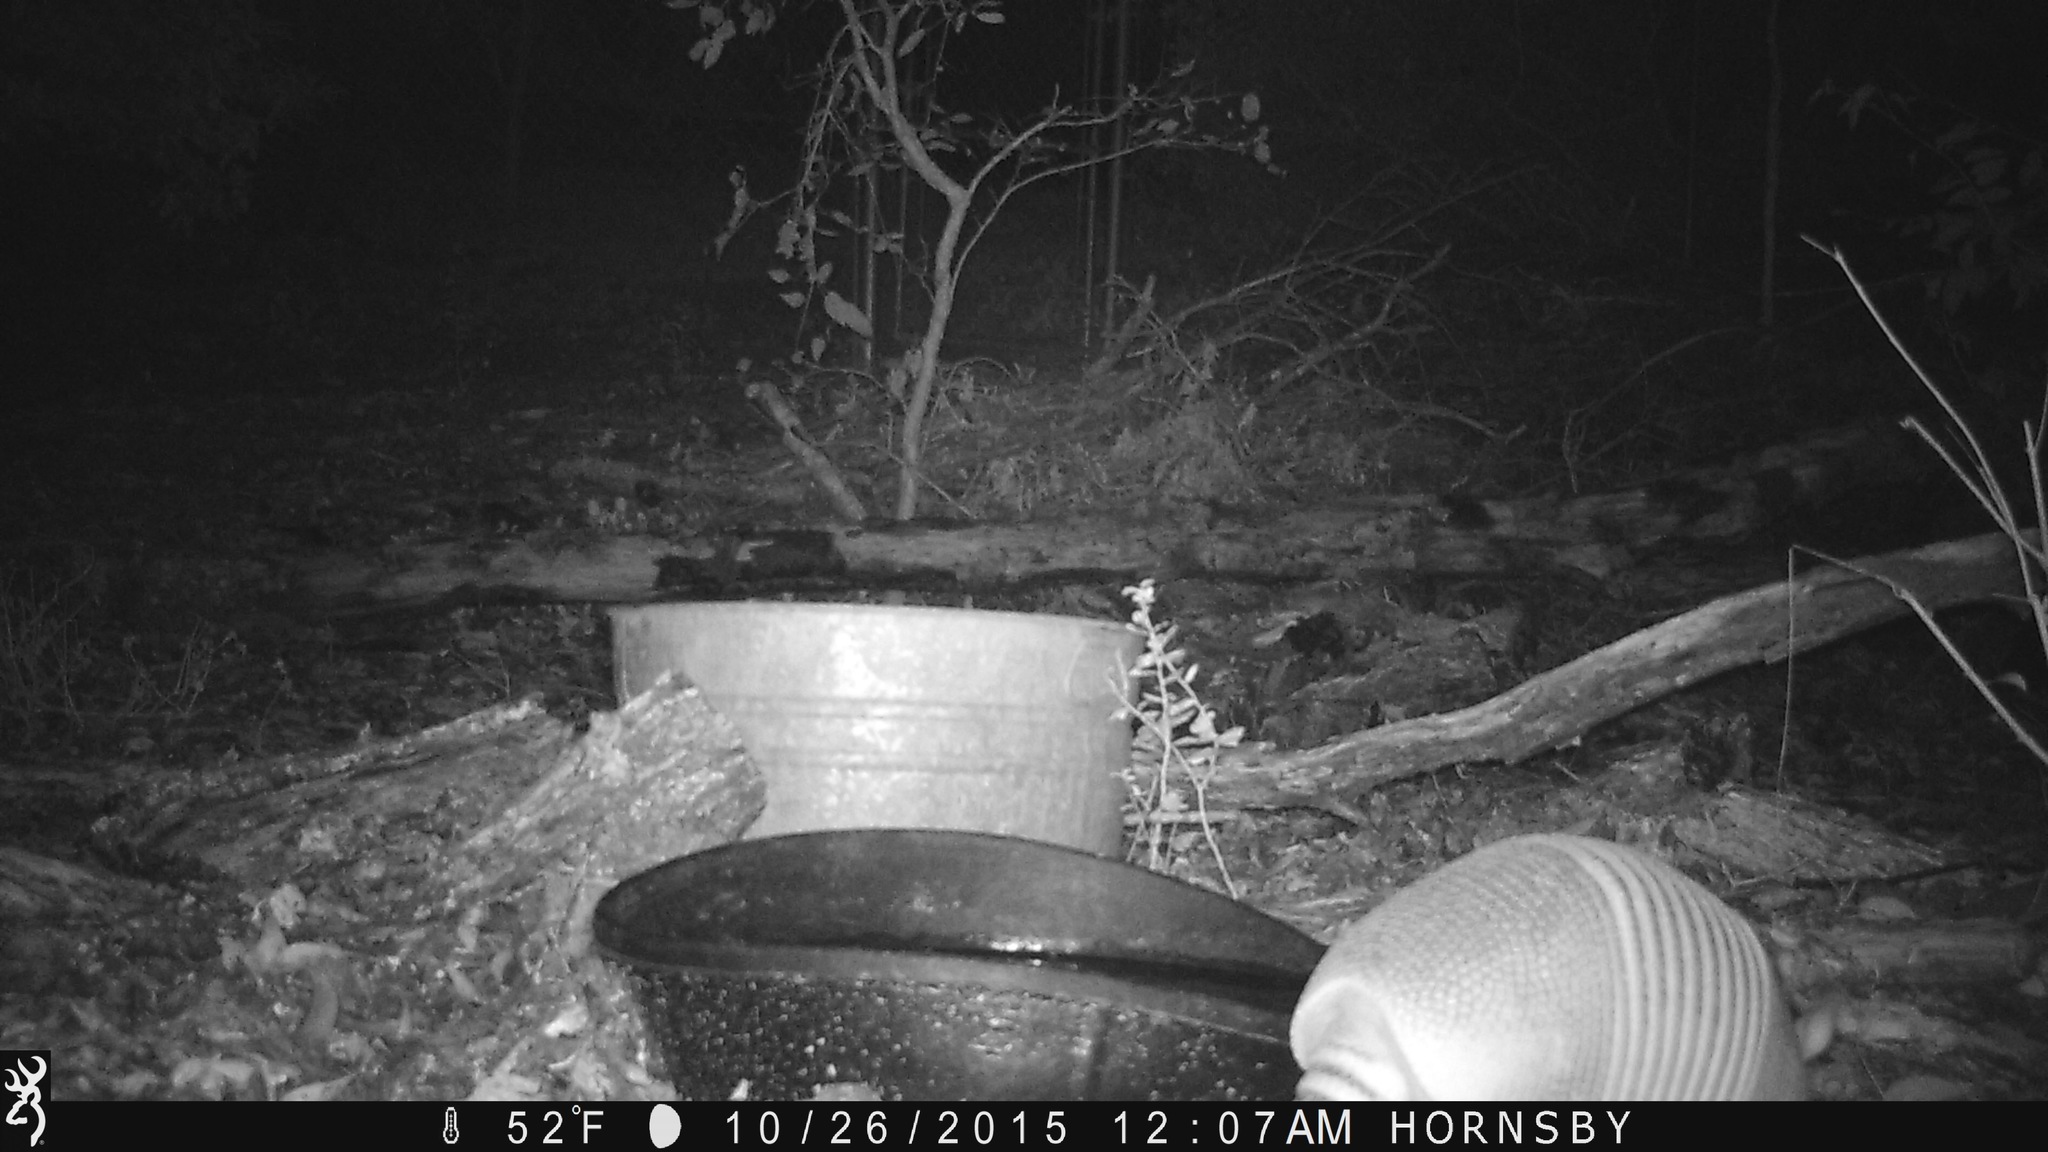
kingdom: Animalia
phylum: Chordata
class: Mammalia
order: Cingulata
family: Dasypodidae
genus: Dasypus
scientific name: Dasypus novemcinctus
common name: Nine-banded armadillo
